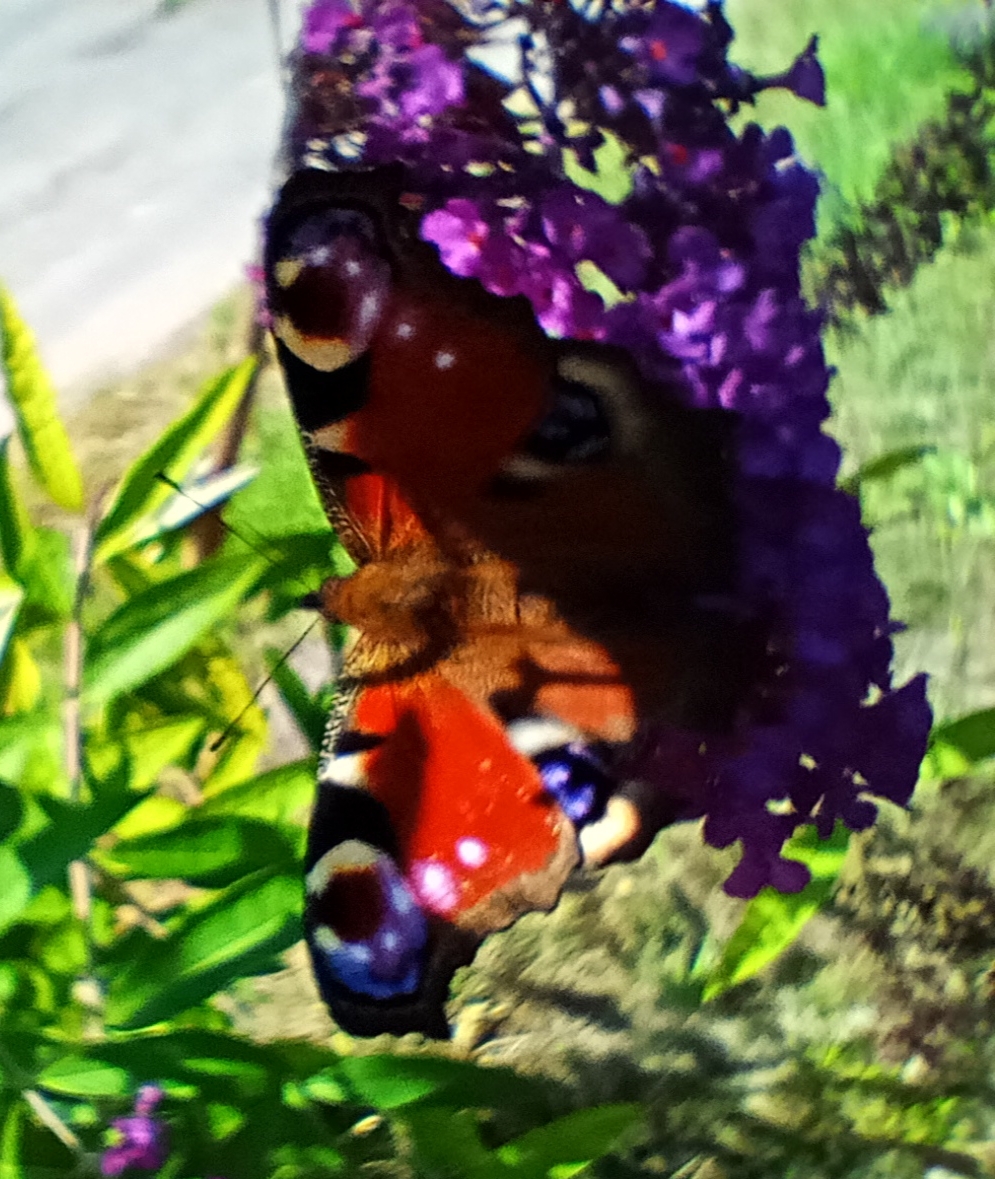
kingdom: Animalia
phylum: Arthropoda
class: Insecta
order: Lepidoptera
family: Nymphalidae
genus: Aglais
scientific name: Aglais io
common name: Peacock
